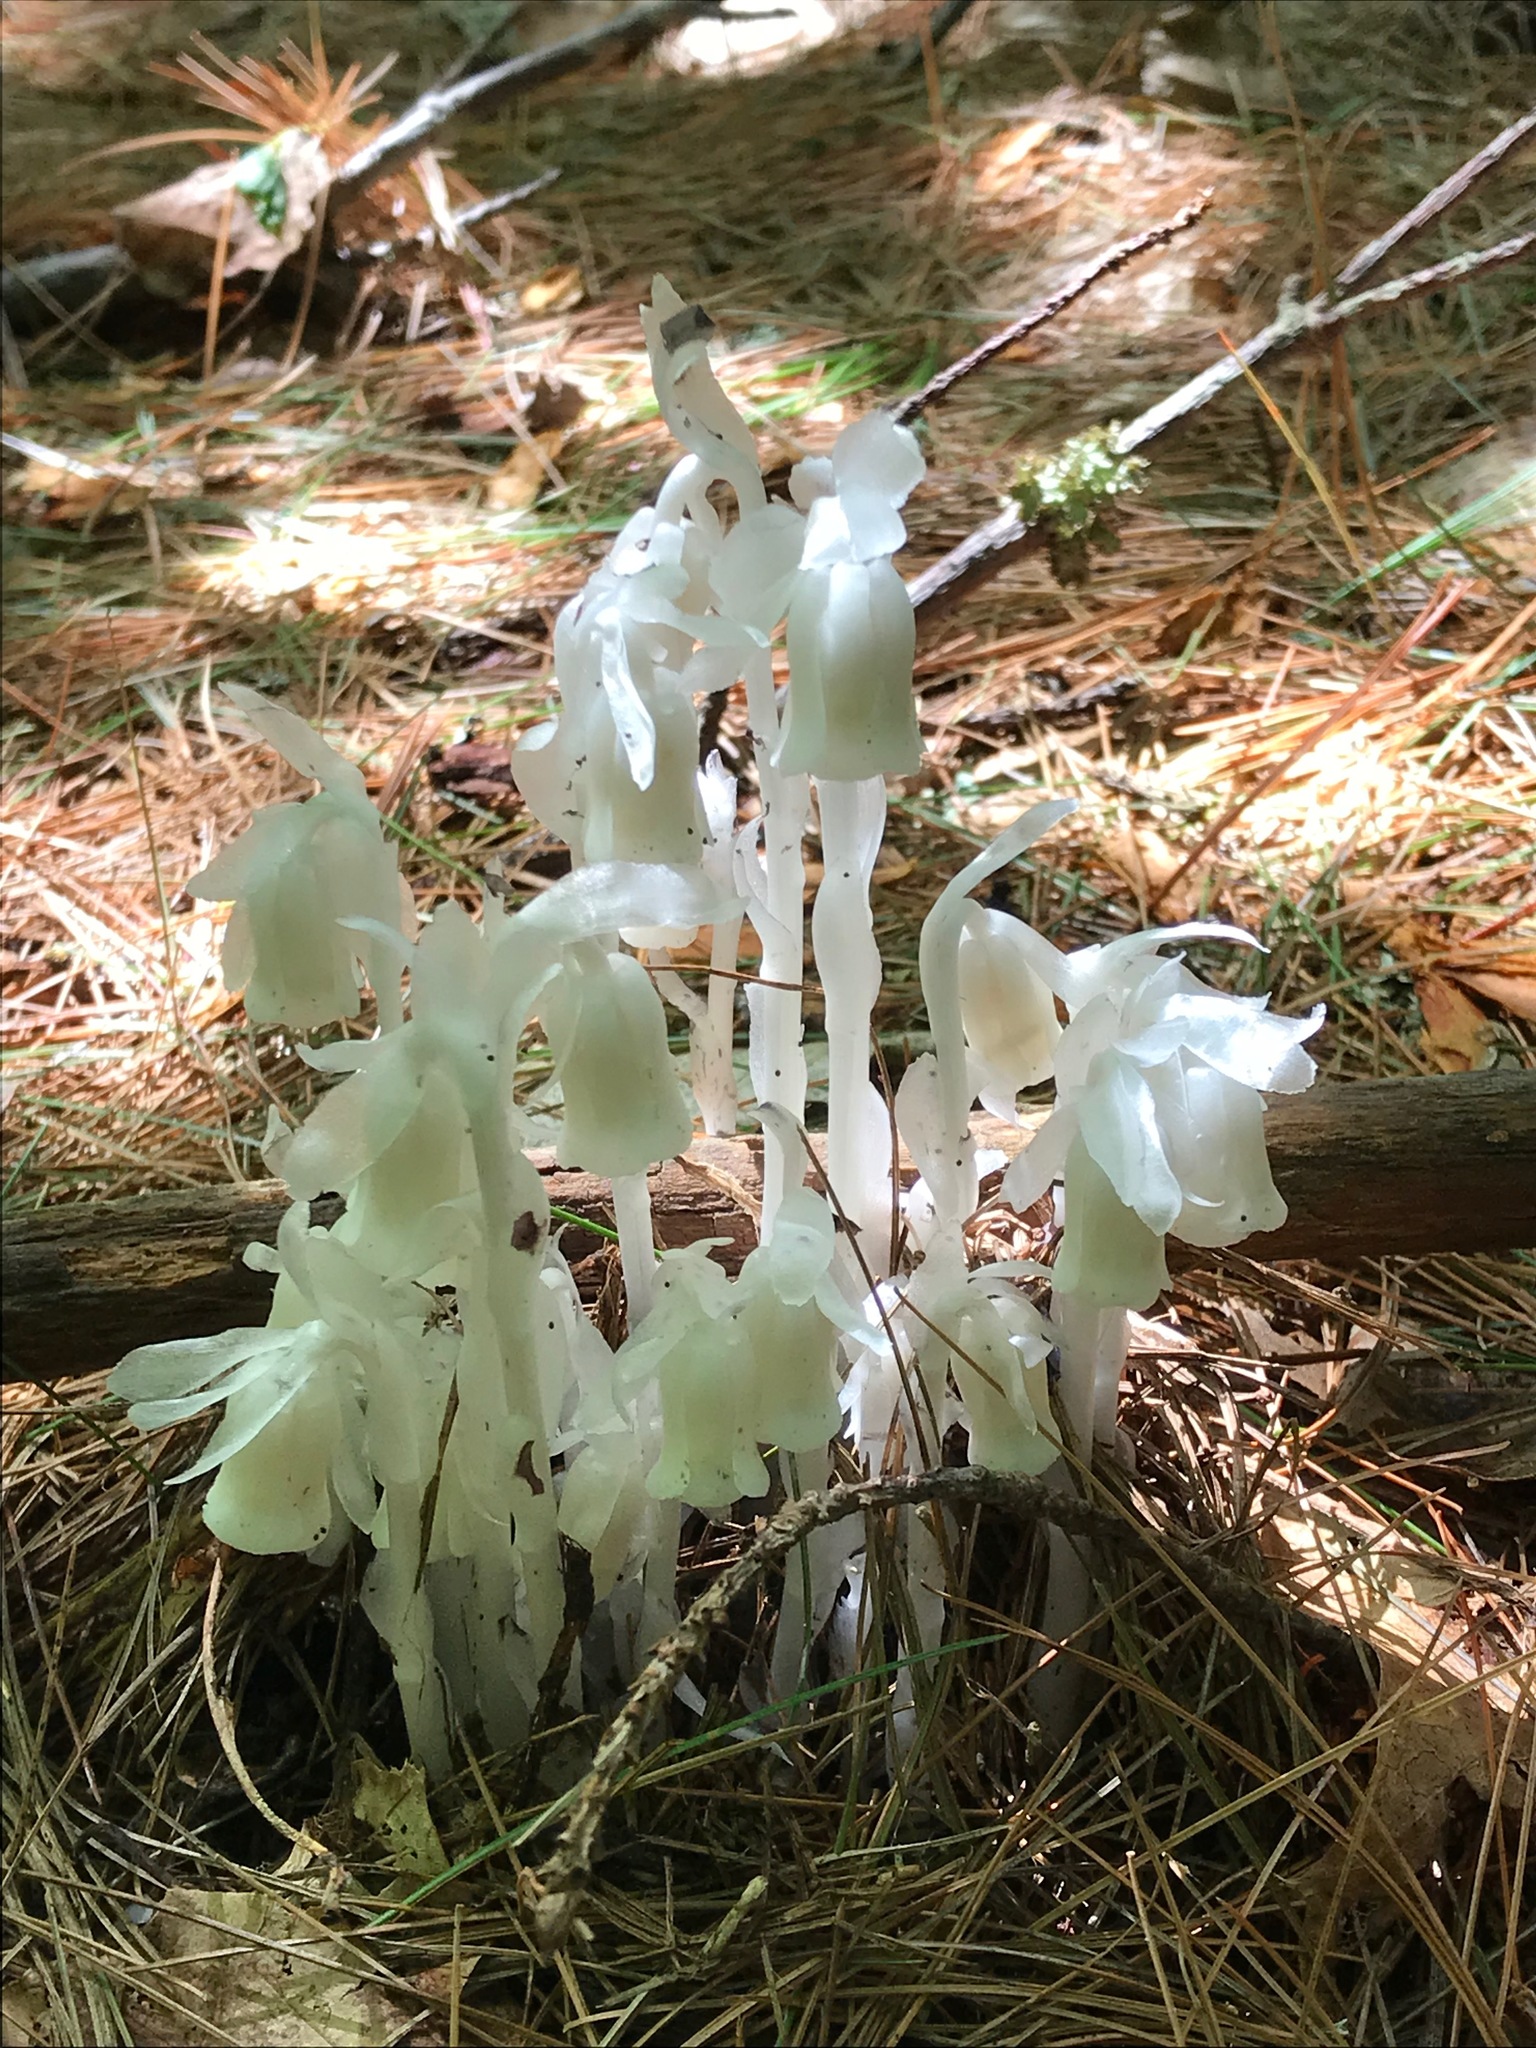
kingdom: Plantae
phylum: Tracheophyta
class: Magnoliopsida
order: Ericales
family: Ericaceae
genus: Monotropa
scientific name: Monotropa uniflora
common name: Convulsion root
